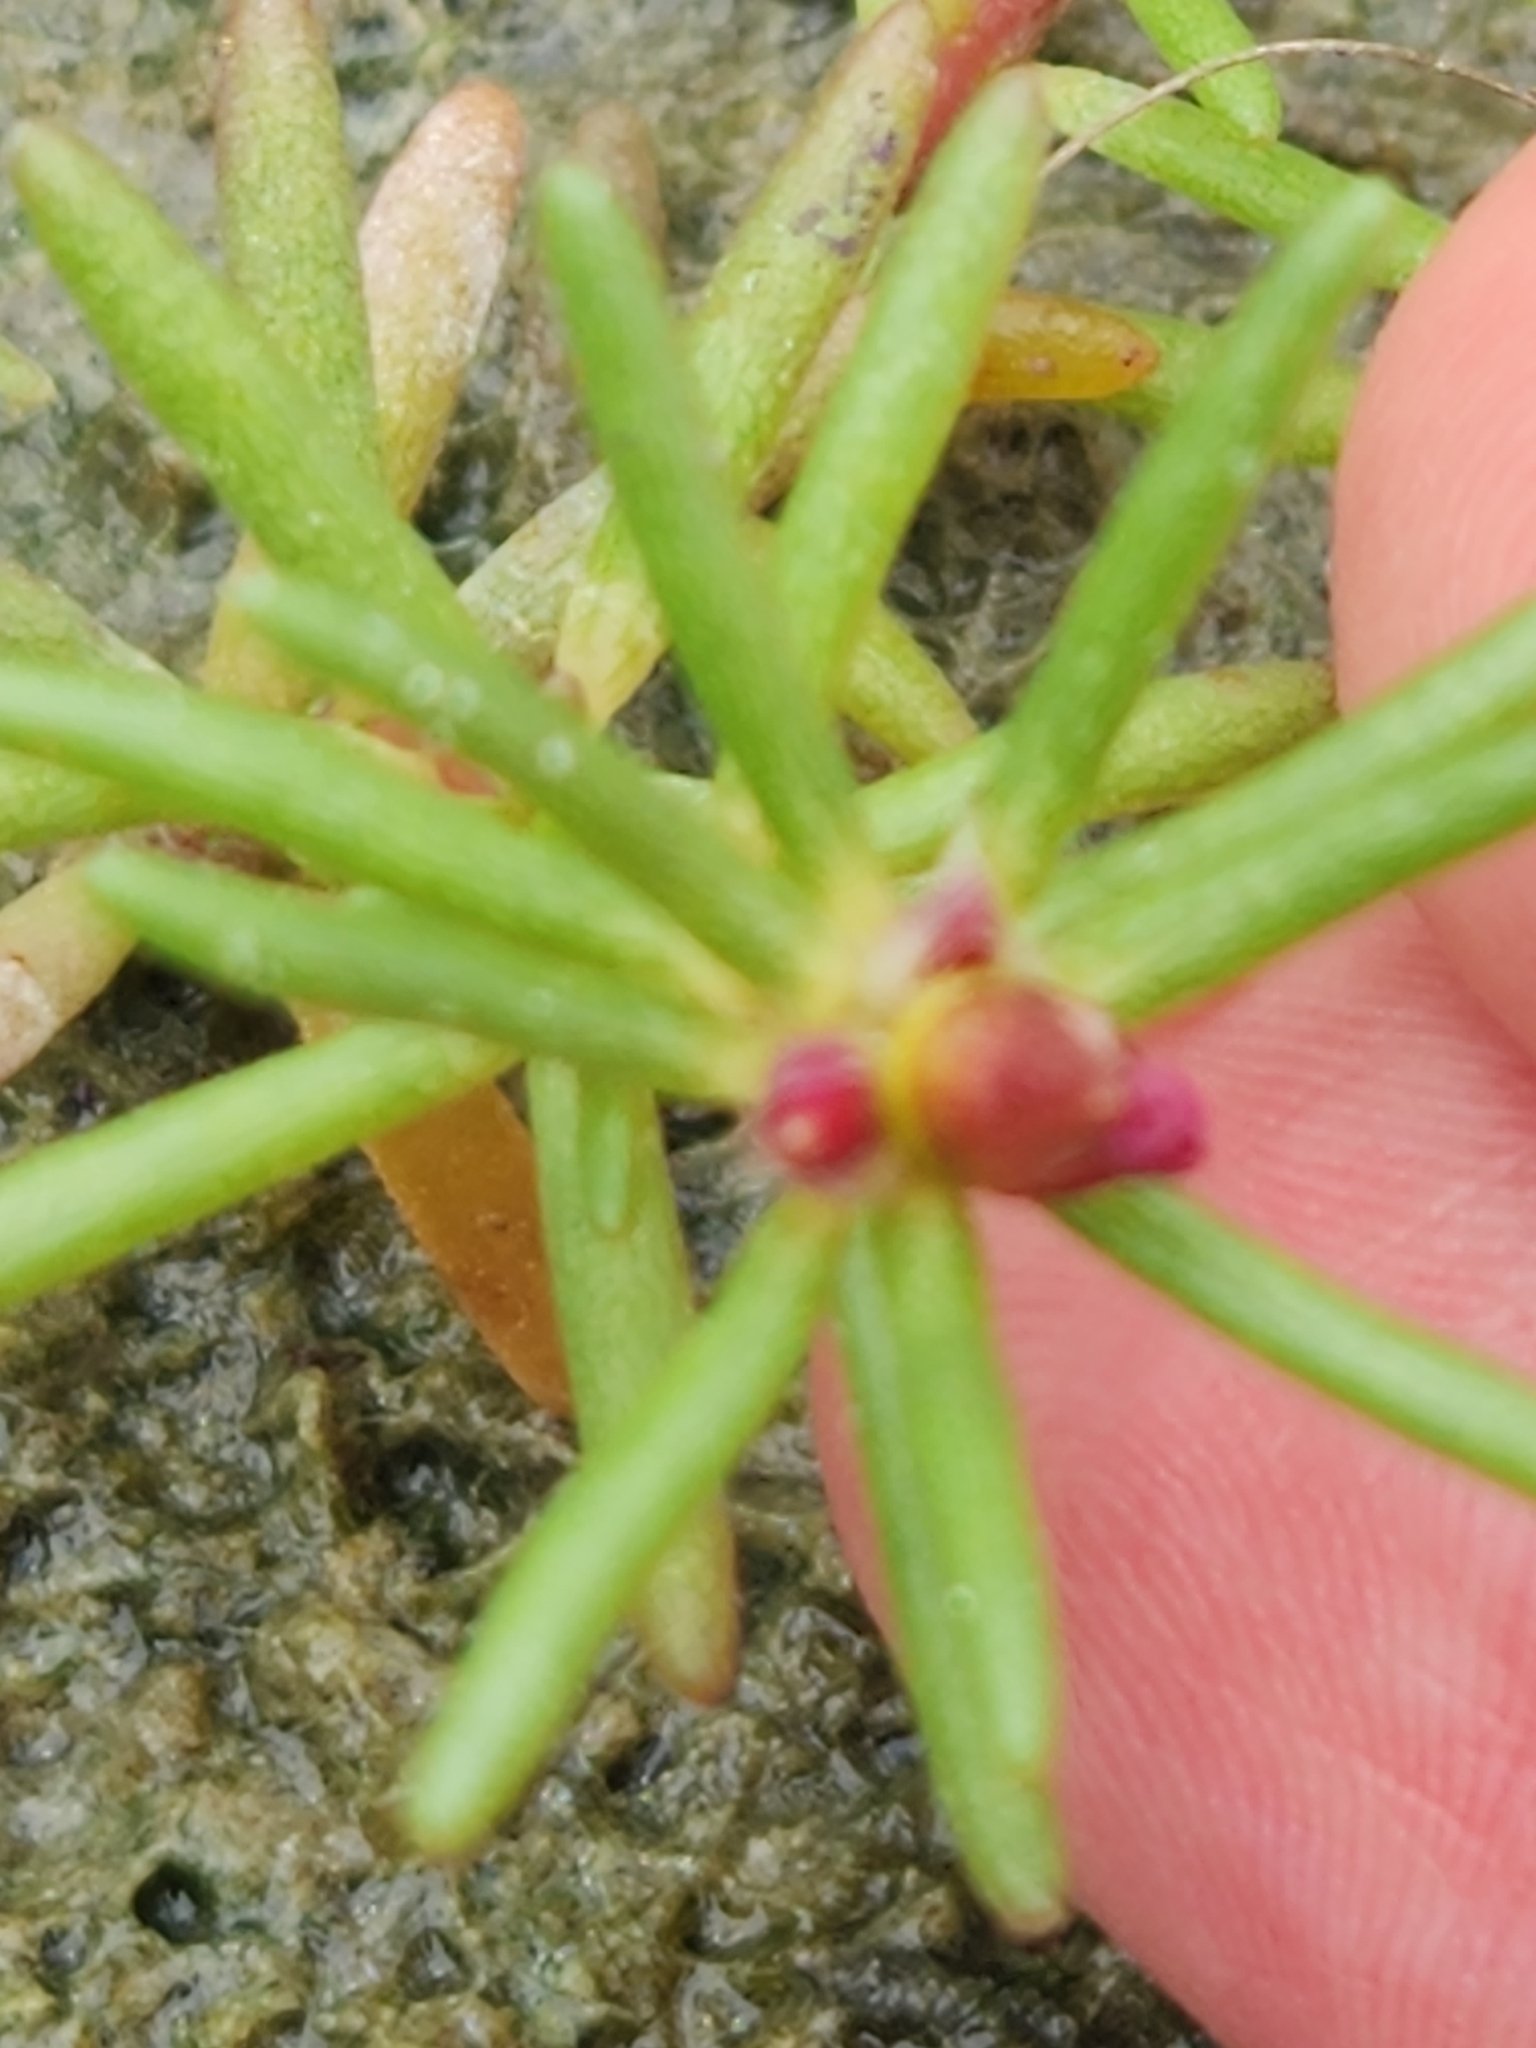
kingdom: Plantae
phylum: Tracheophyta
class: Magnoliopsida
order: Caryophyllales
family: Portulacaceae
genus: Portulaca
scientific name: Portulaca pilosa
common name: Kiss me quick
